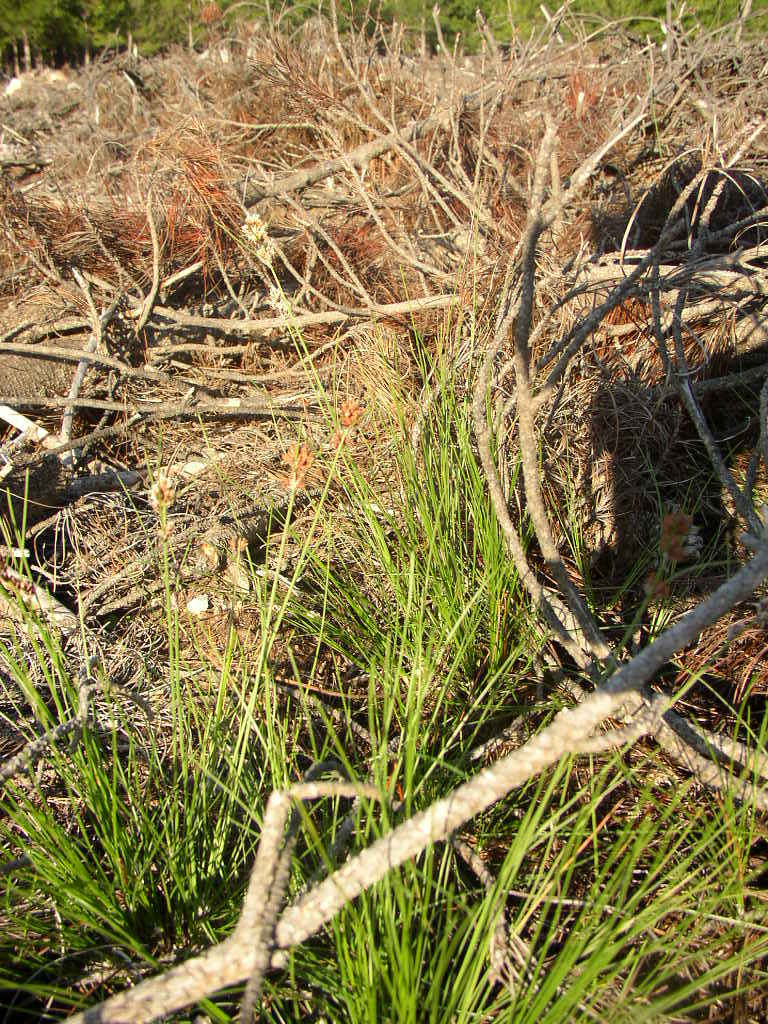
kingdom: Plantae
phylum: Tracheophyta
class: Liliopsida
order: Poales
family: Cyperaceae
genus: Schoenus
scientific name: Schoenus compar
